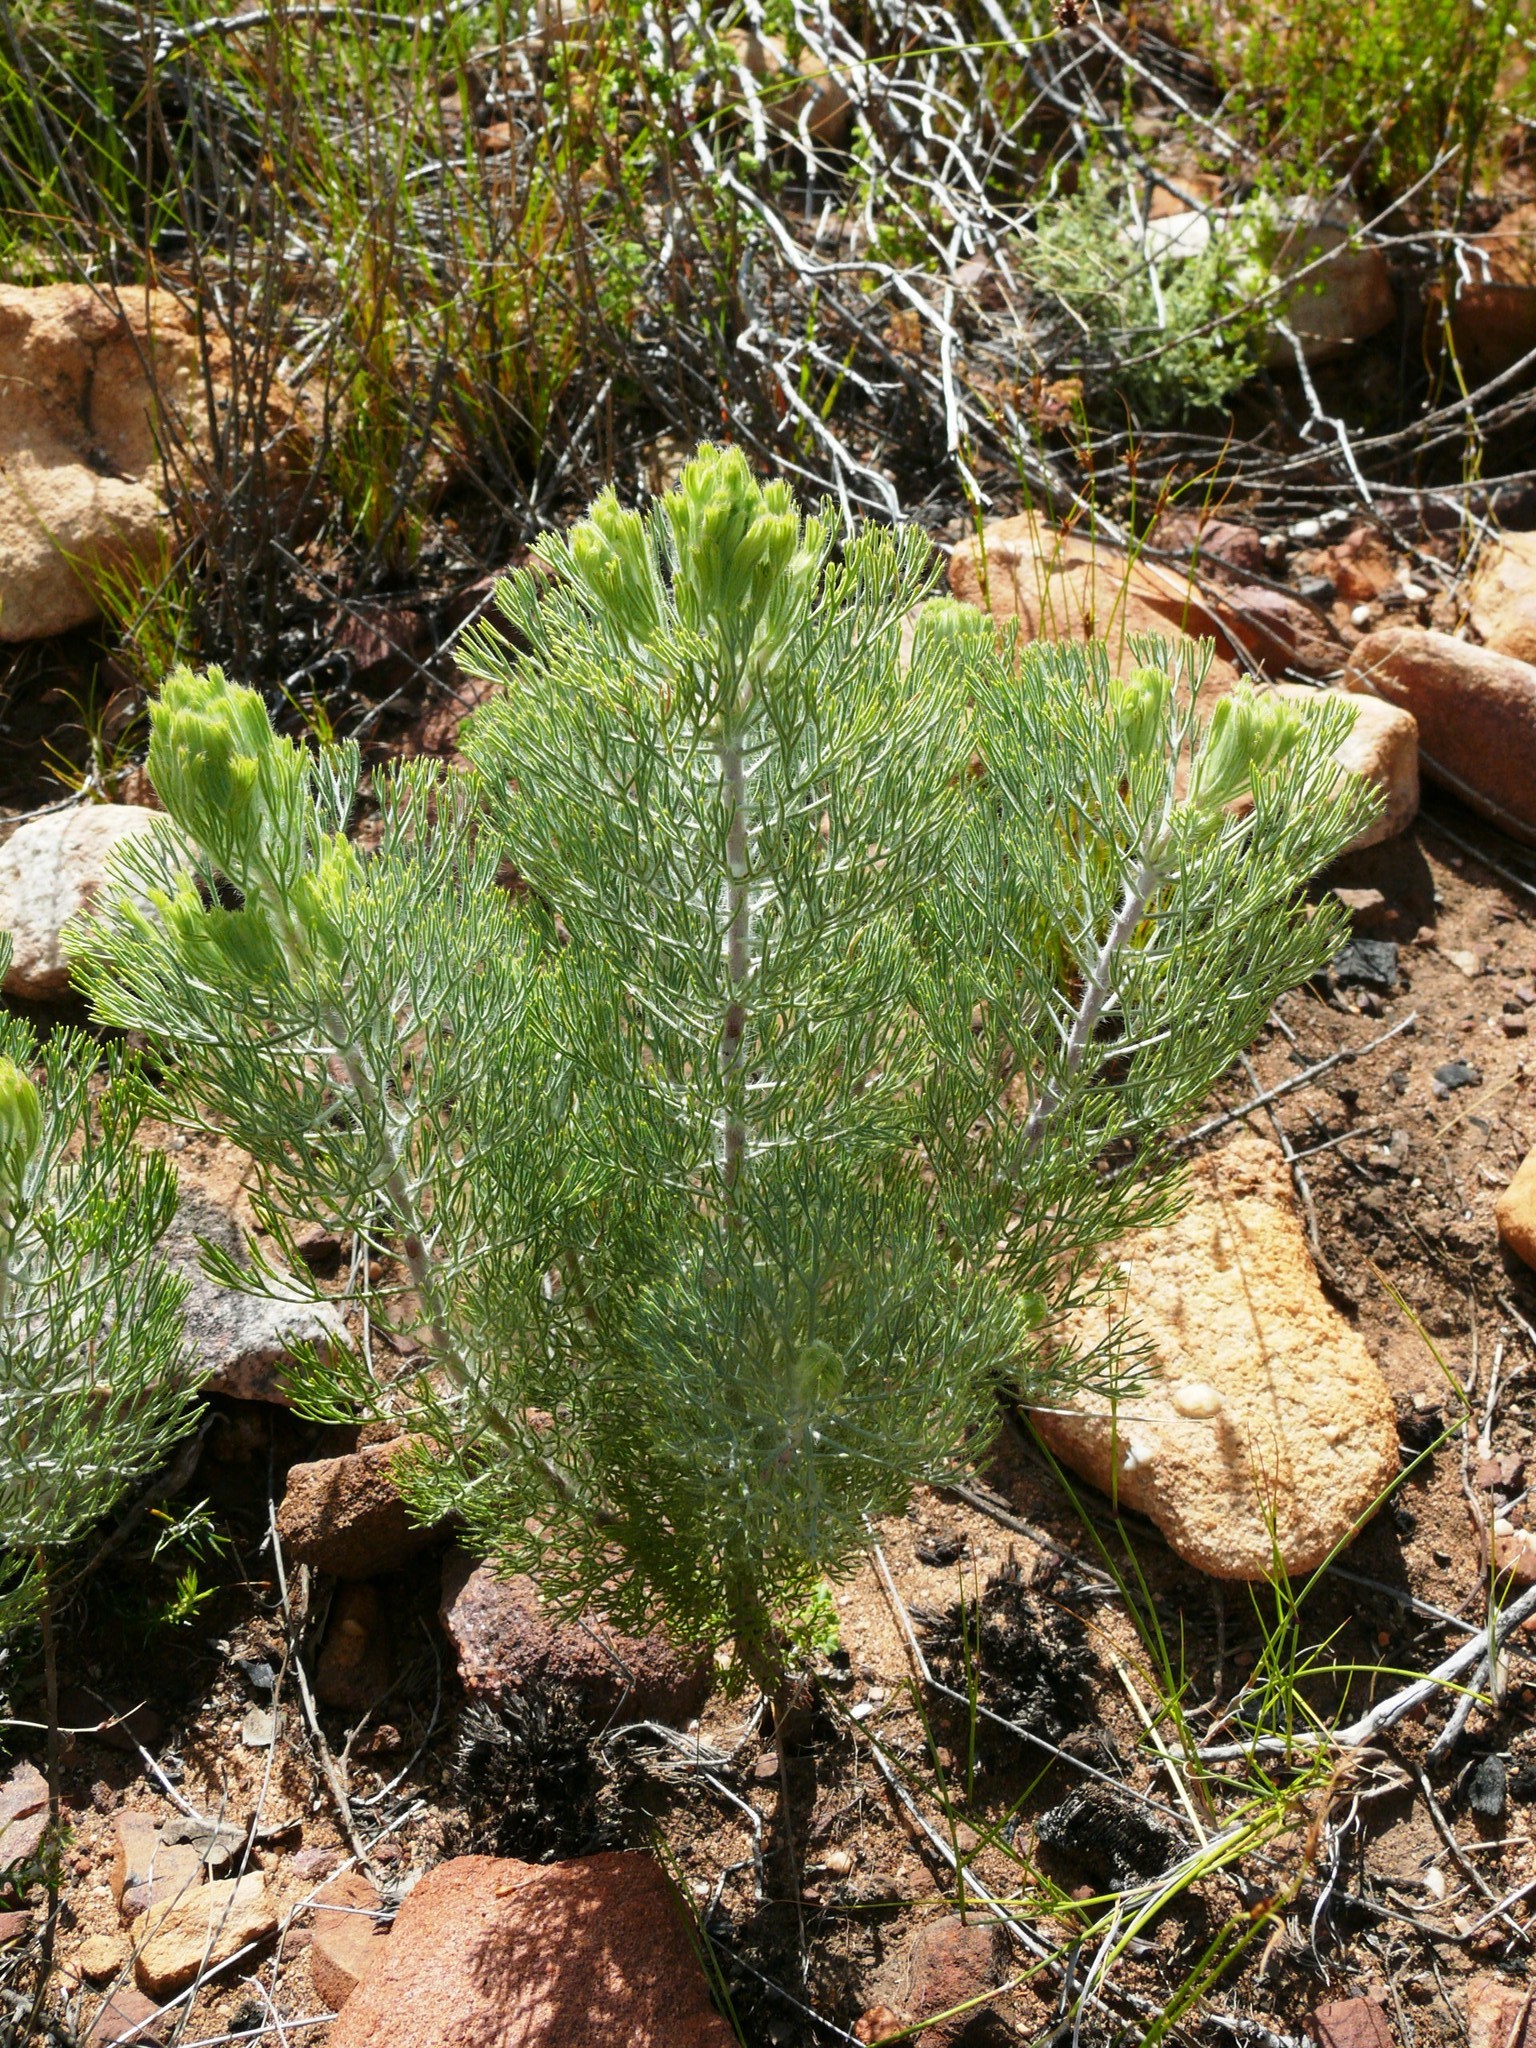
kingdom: Plantae
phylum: Tracheophyta
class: Magnoliopsida
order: Proteales
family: Proteaceae
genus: Paranomus
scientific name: Paranomus bracteolaris
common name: Bokkeveld tree sceptre
